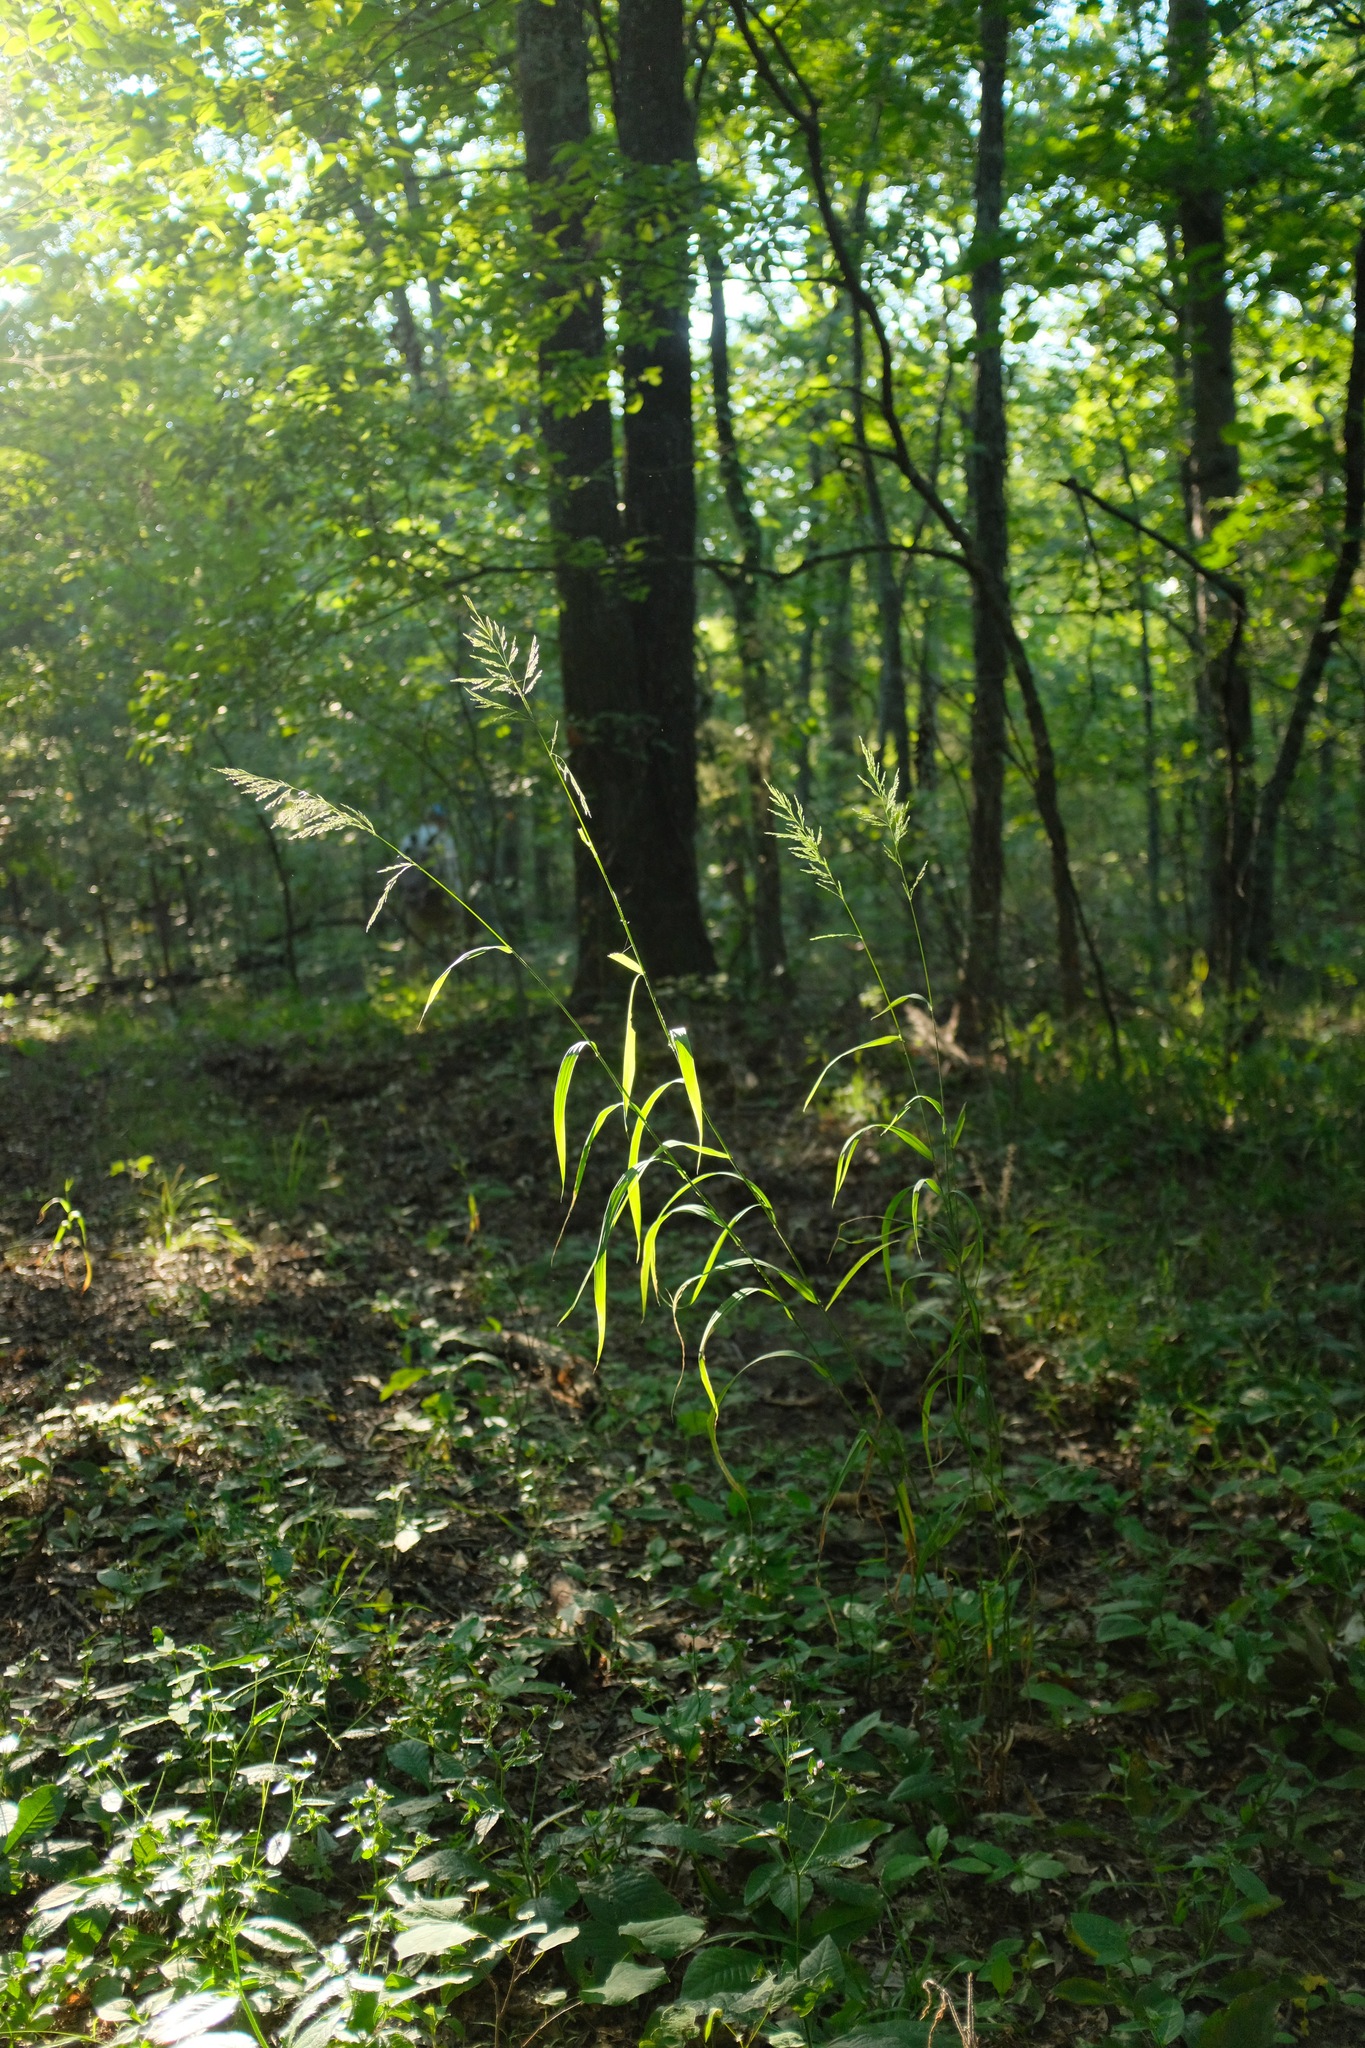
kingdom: Plantae
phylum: Tracheophyta
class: Liliopsida
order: Poales
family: Poaceae
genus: Cinna
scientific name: Cinna arundinacea
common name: Stout woodreed
